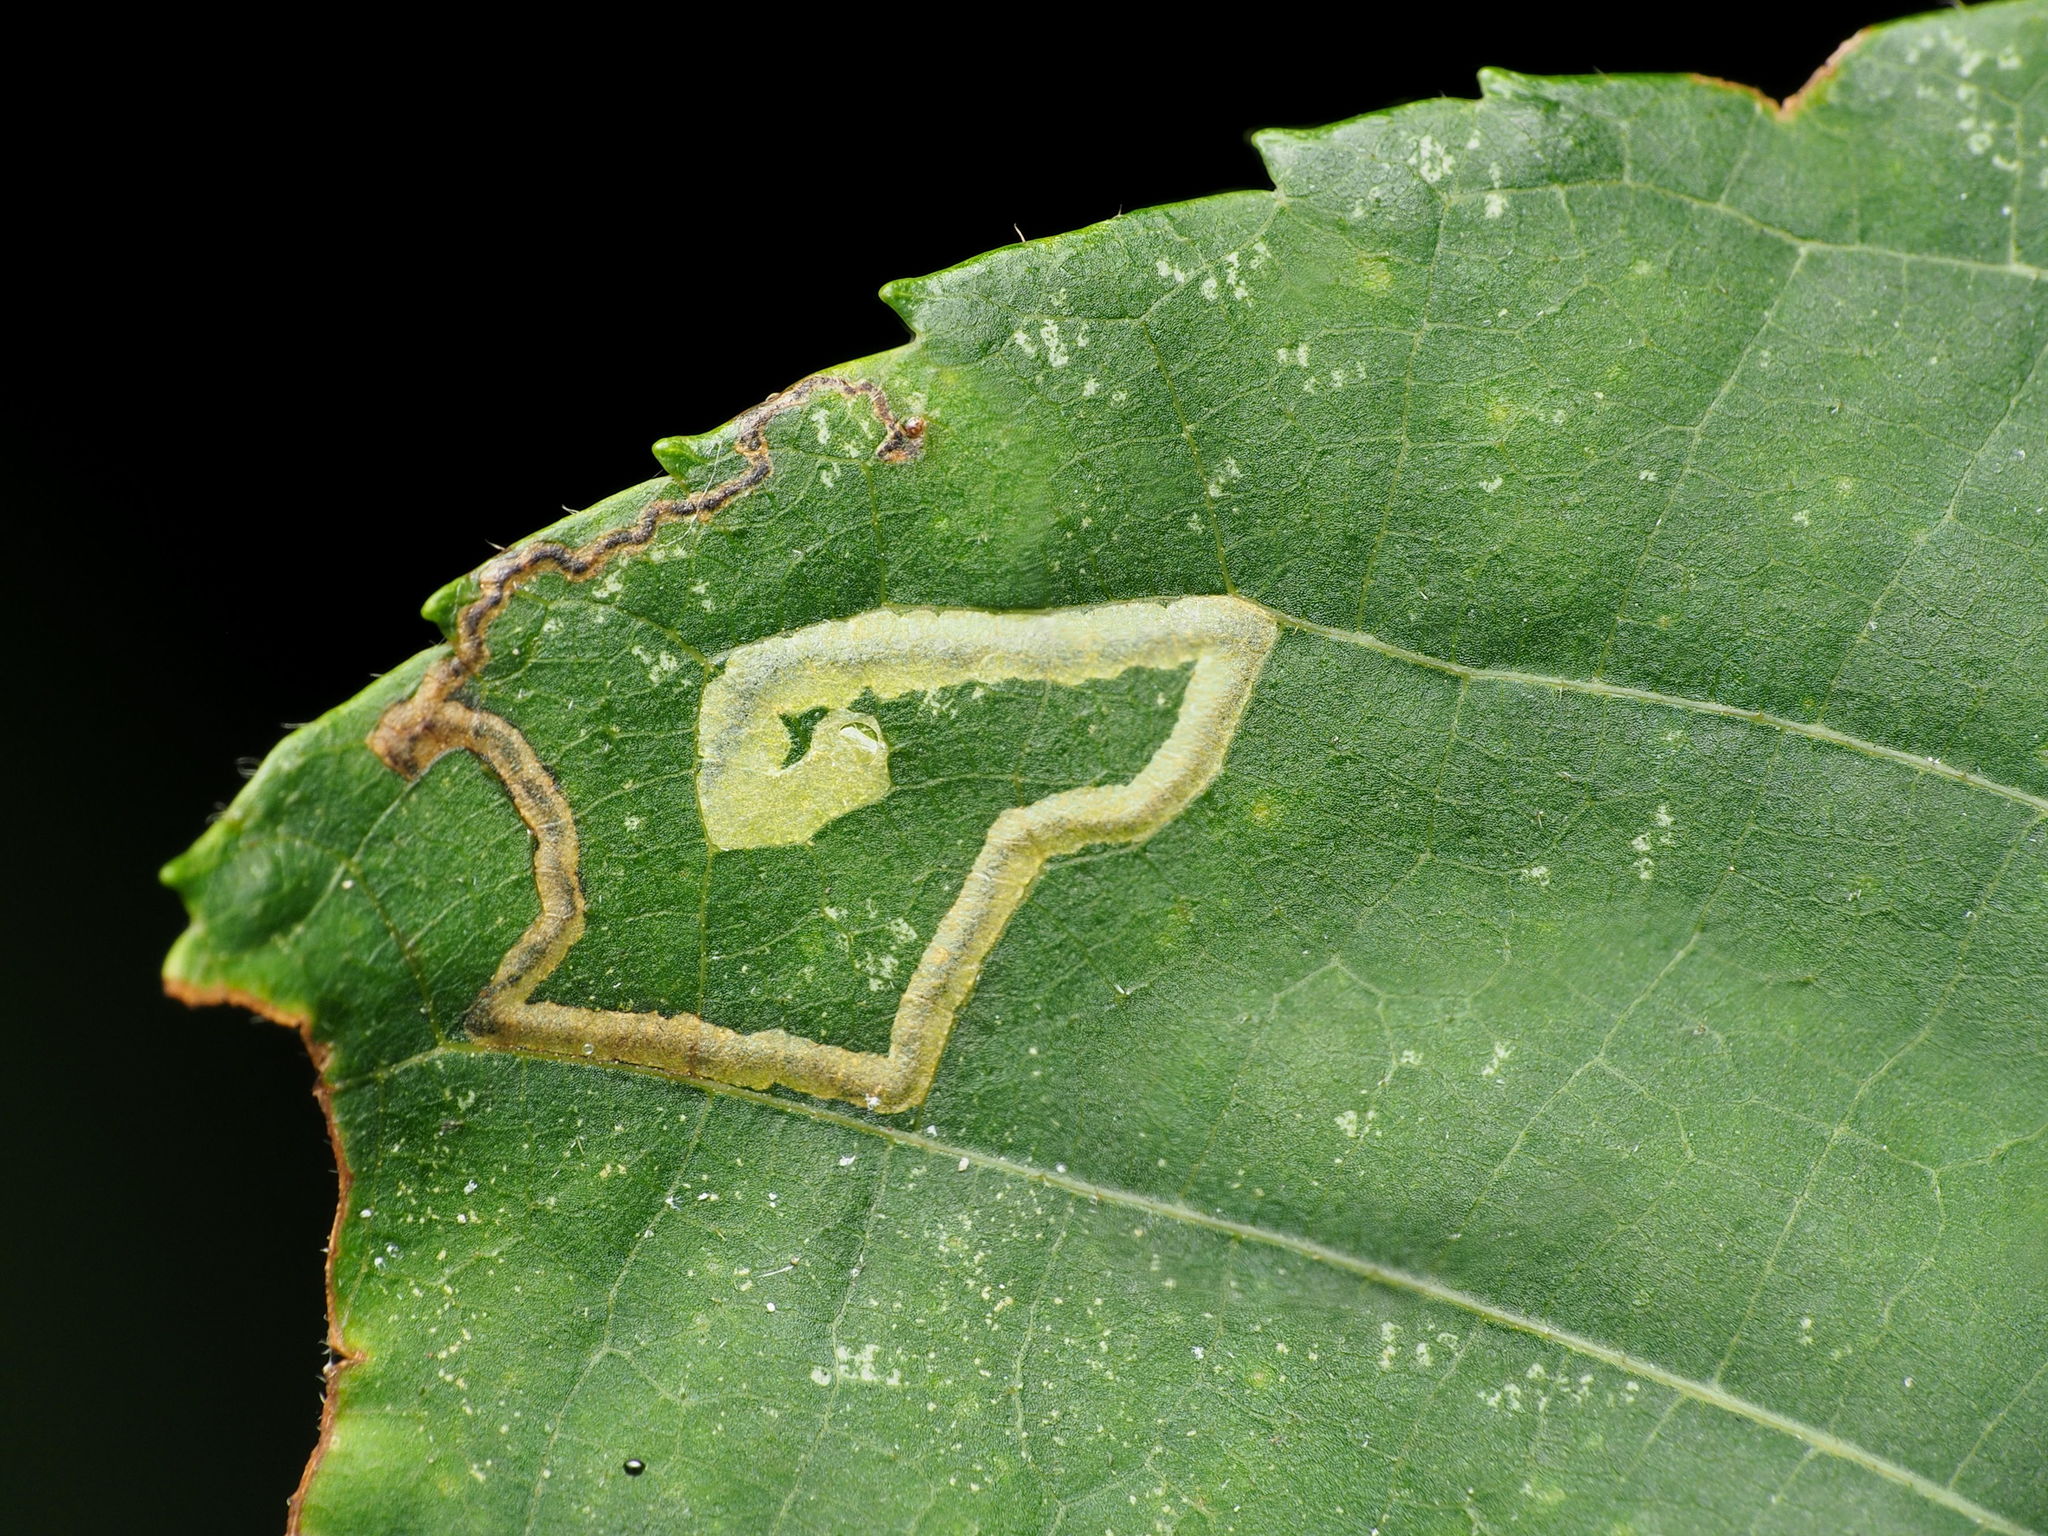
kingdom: Animalia
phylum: Arthropoda
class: Insecta
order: Lepidoptera
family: Nepticulidae
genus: Stigmella
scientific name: Stigmella caryaefoliella
